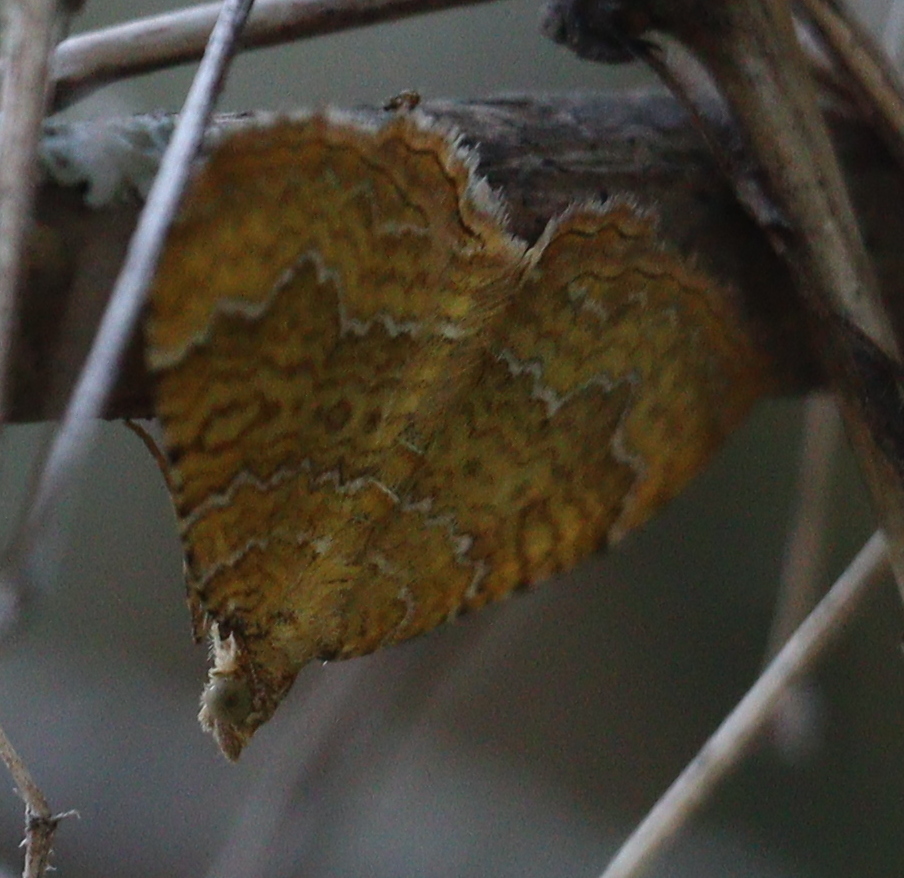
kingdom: Animalia
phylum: Arthropoda
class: Insecta
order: Lepidoptera
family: Geometridae
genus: Camptogramma
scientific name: Camptogramma bilineata
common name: Yellow shell
